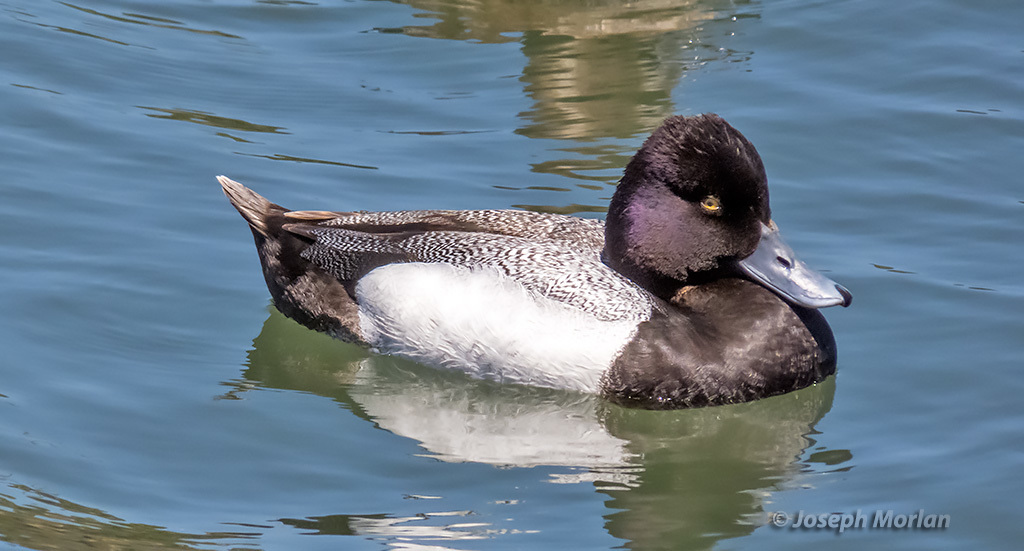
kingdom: Animalia
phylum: Chordata
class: Aves
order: Anseriformes
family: Anatidae
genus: Aythya
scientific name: Aythya affinis
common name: Lesser scaup
